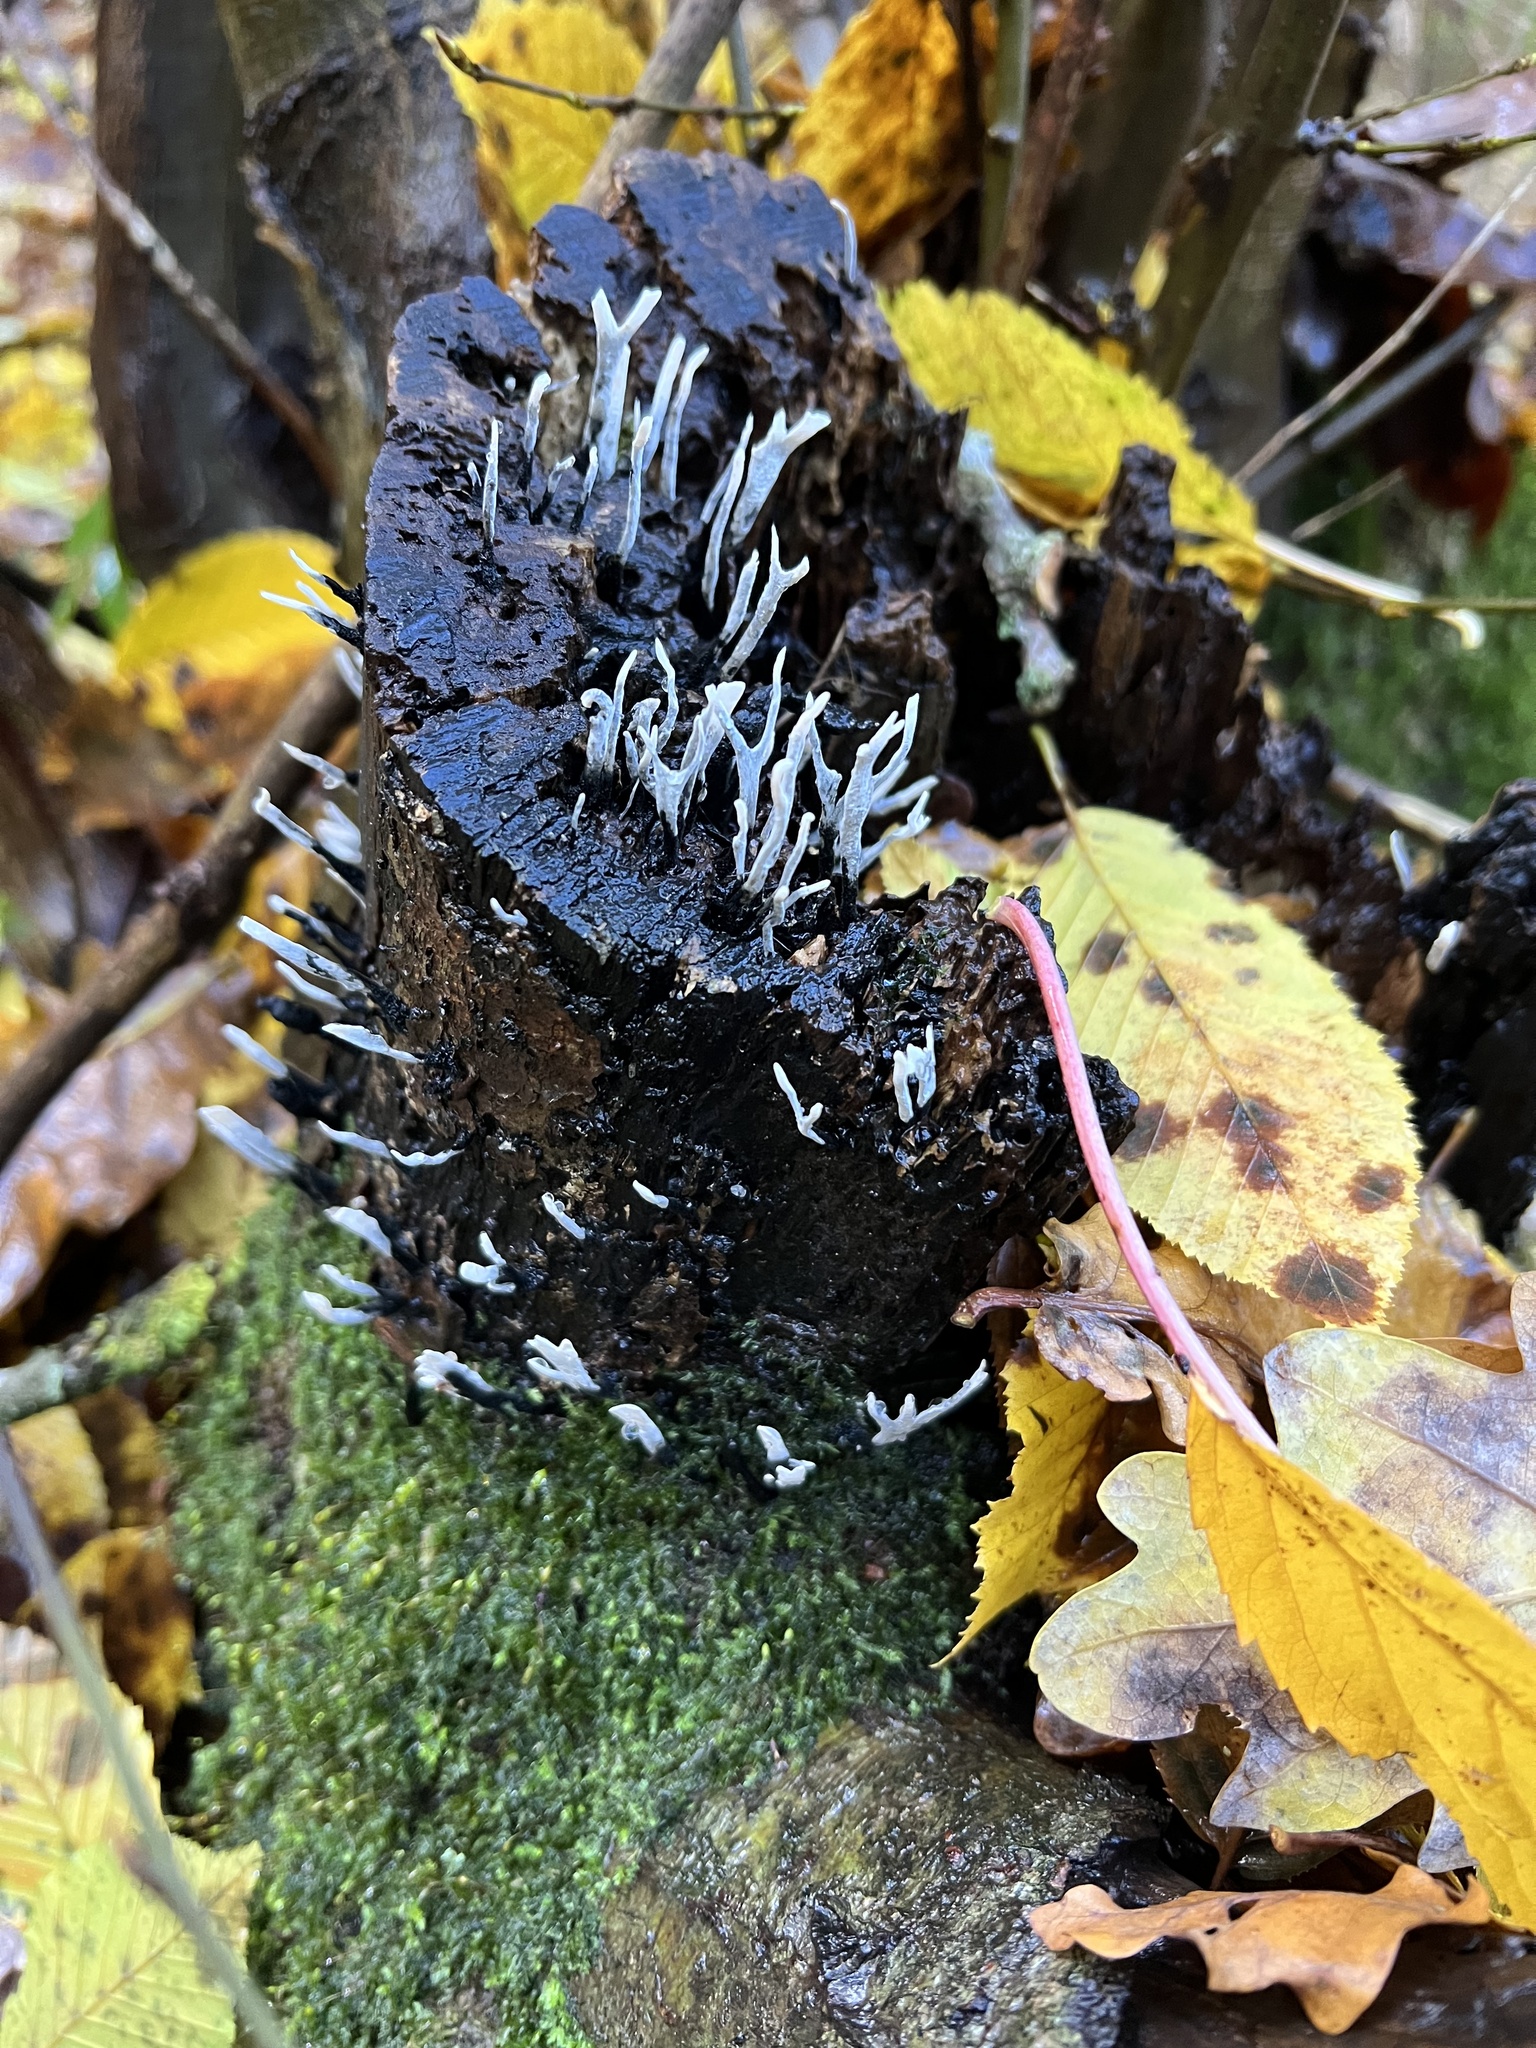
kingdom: Fungi
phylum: Ascomycota
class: Sordariomycetes
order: Xylariales
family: Xylariaceae
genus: Xylaria
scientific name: Xylaria hypoxylon
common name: Candle-snuff fungus
